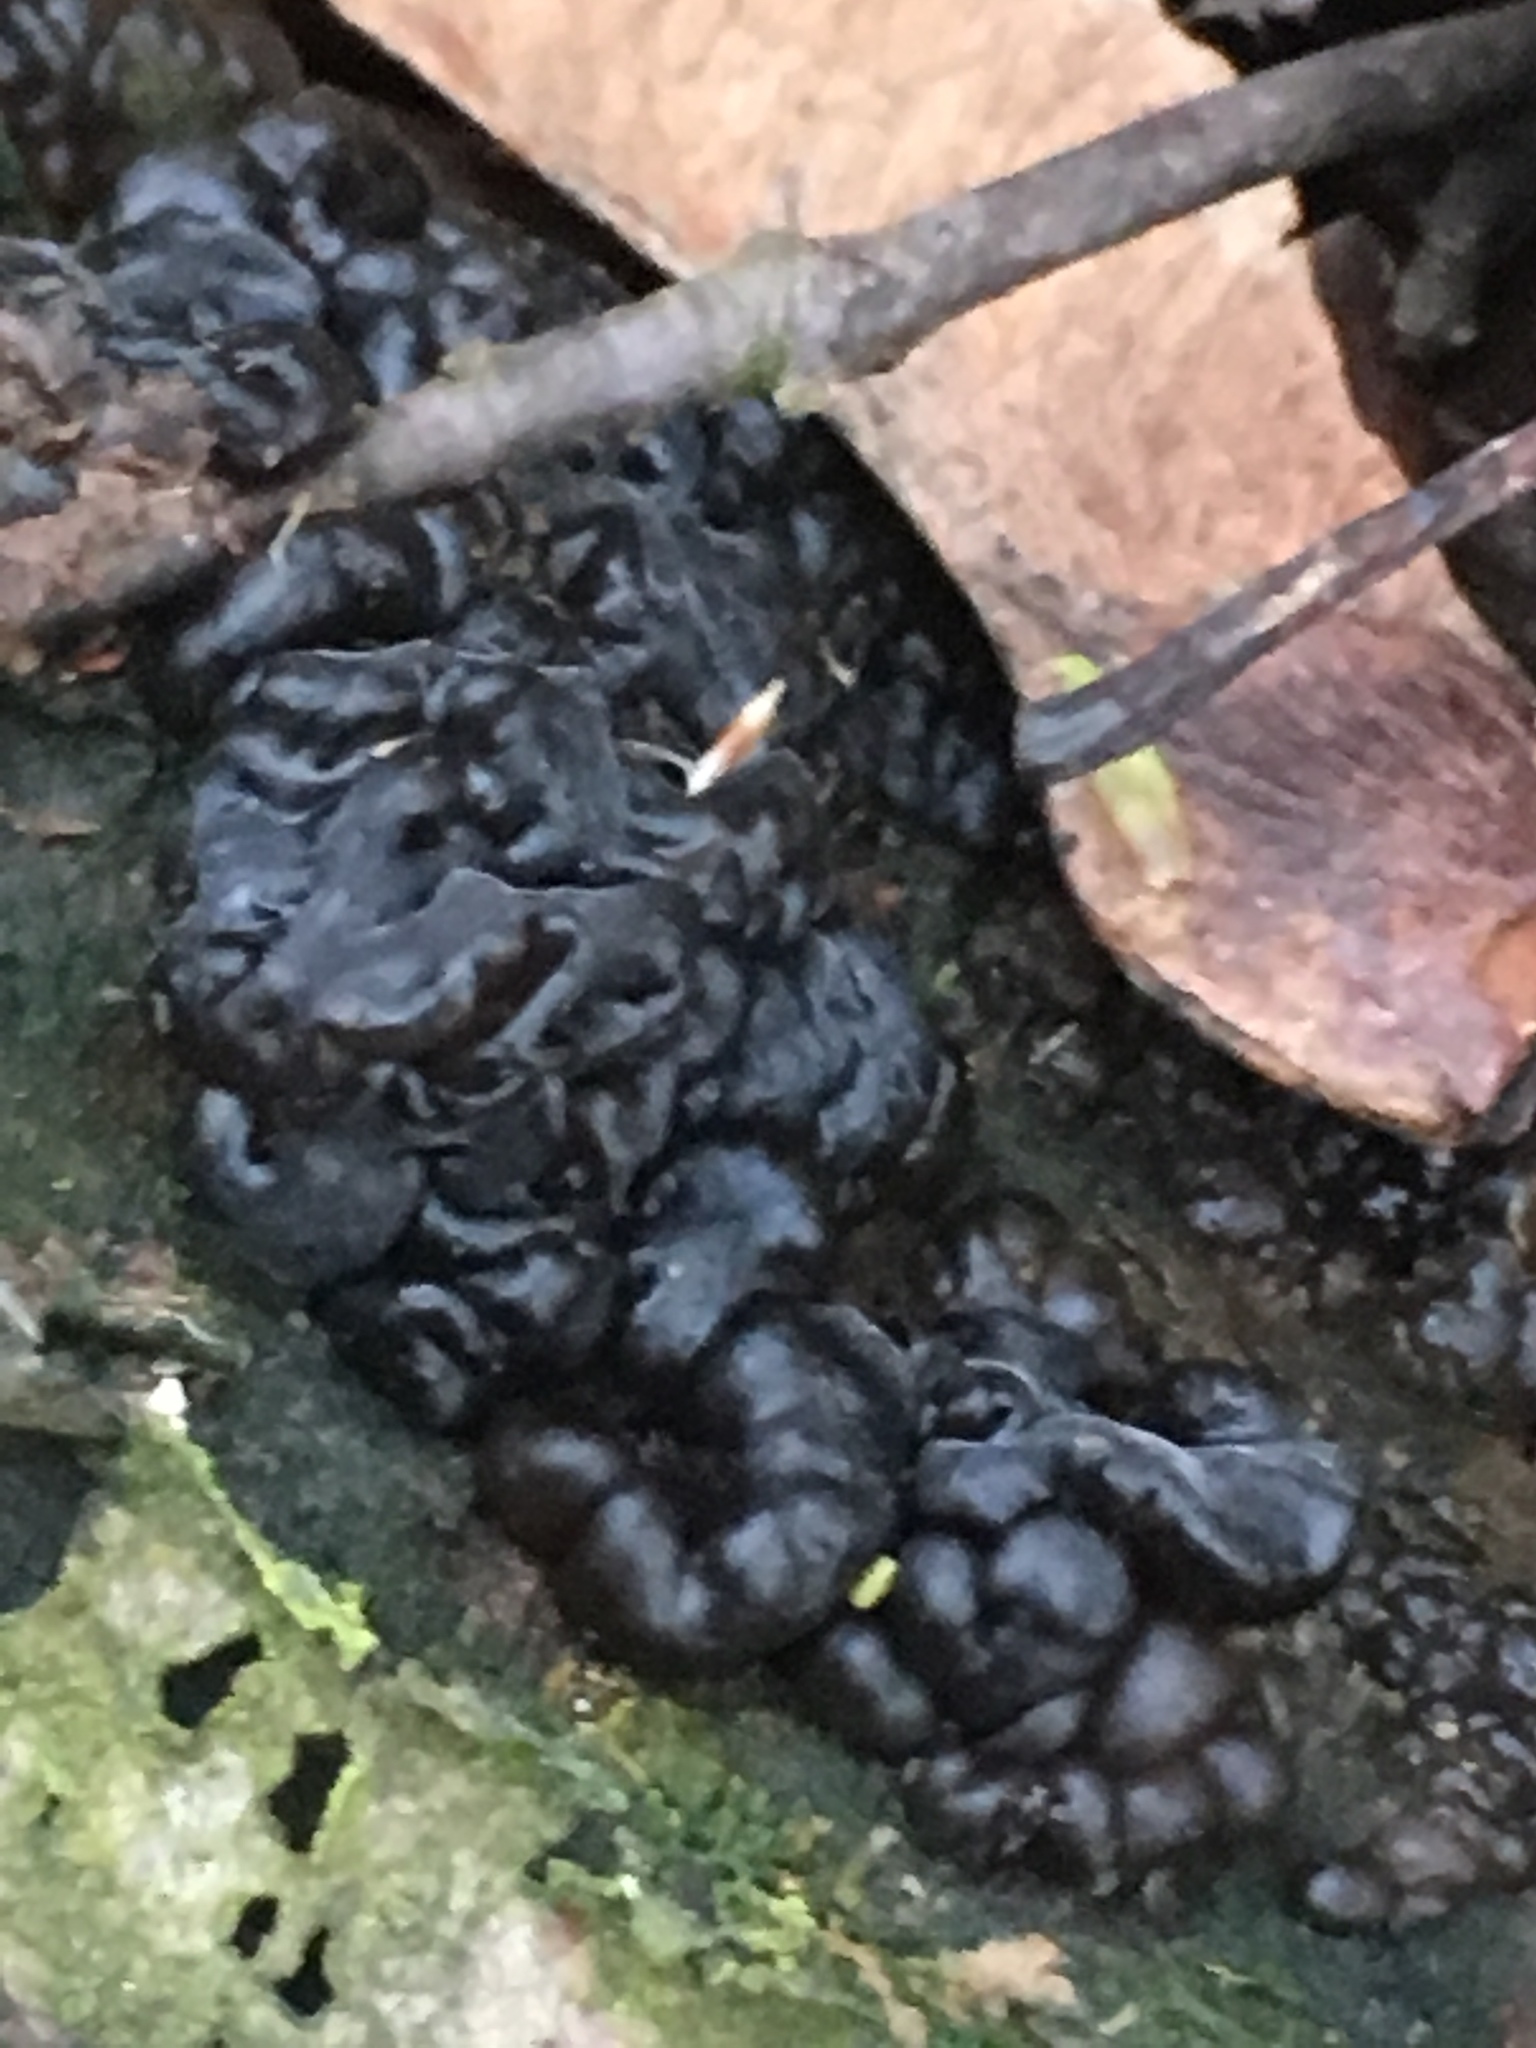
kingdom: Fungi
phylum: Basidiomycota
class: Agaricomycetes
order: Auriculariales
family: Auriculariaceae
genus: Exidia
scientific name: Exidia glandulosa
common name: Witches' butter
